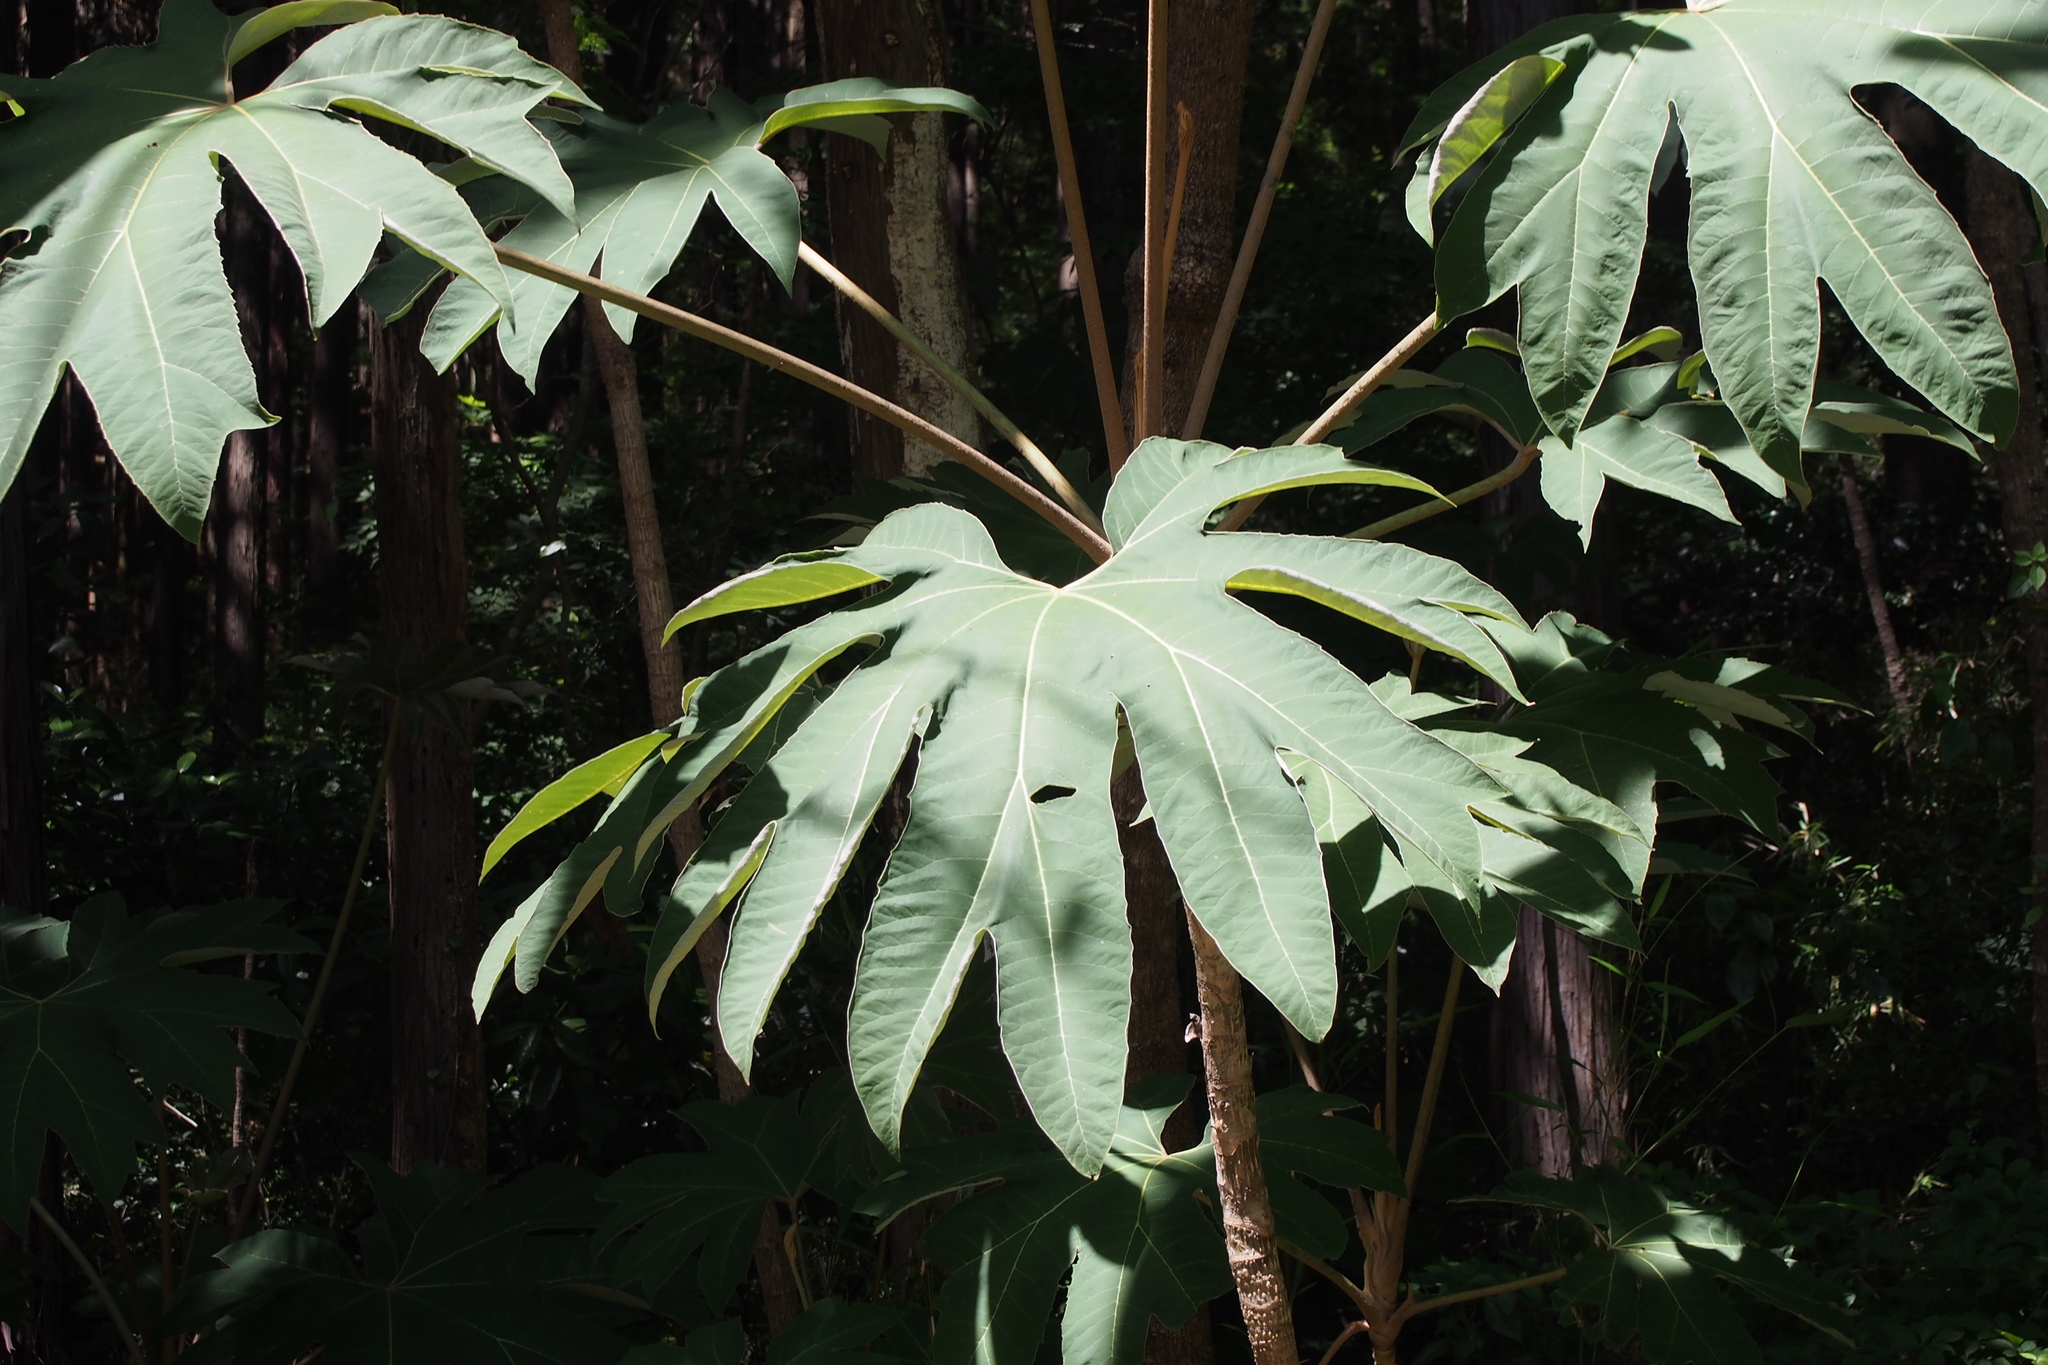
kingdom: Plantae
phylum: Tracheophyta
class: Magnoliopsida
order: Apiales
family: Araliaceae
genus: Tetrapanax
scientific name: Tetrapanax papyrifer
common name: Rice-paper plant
